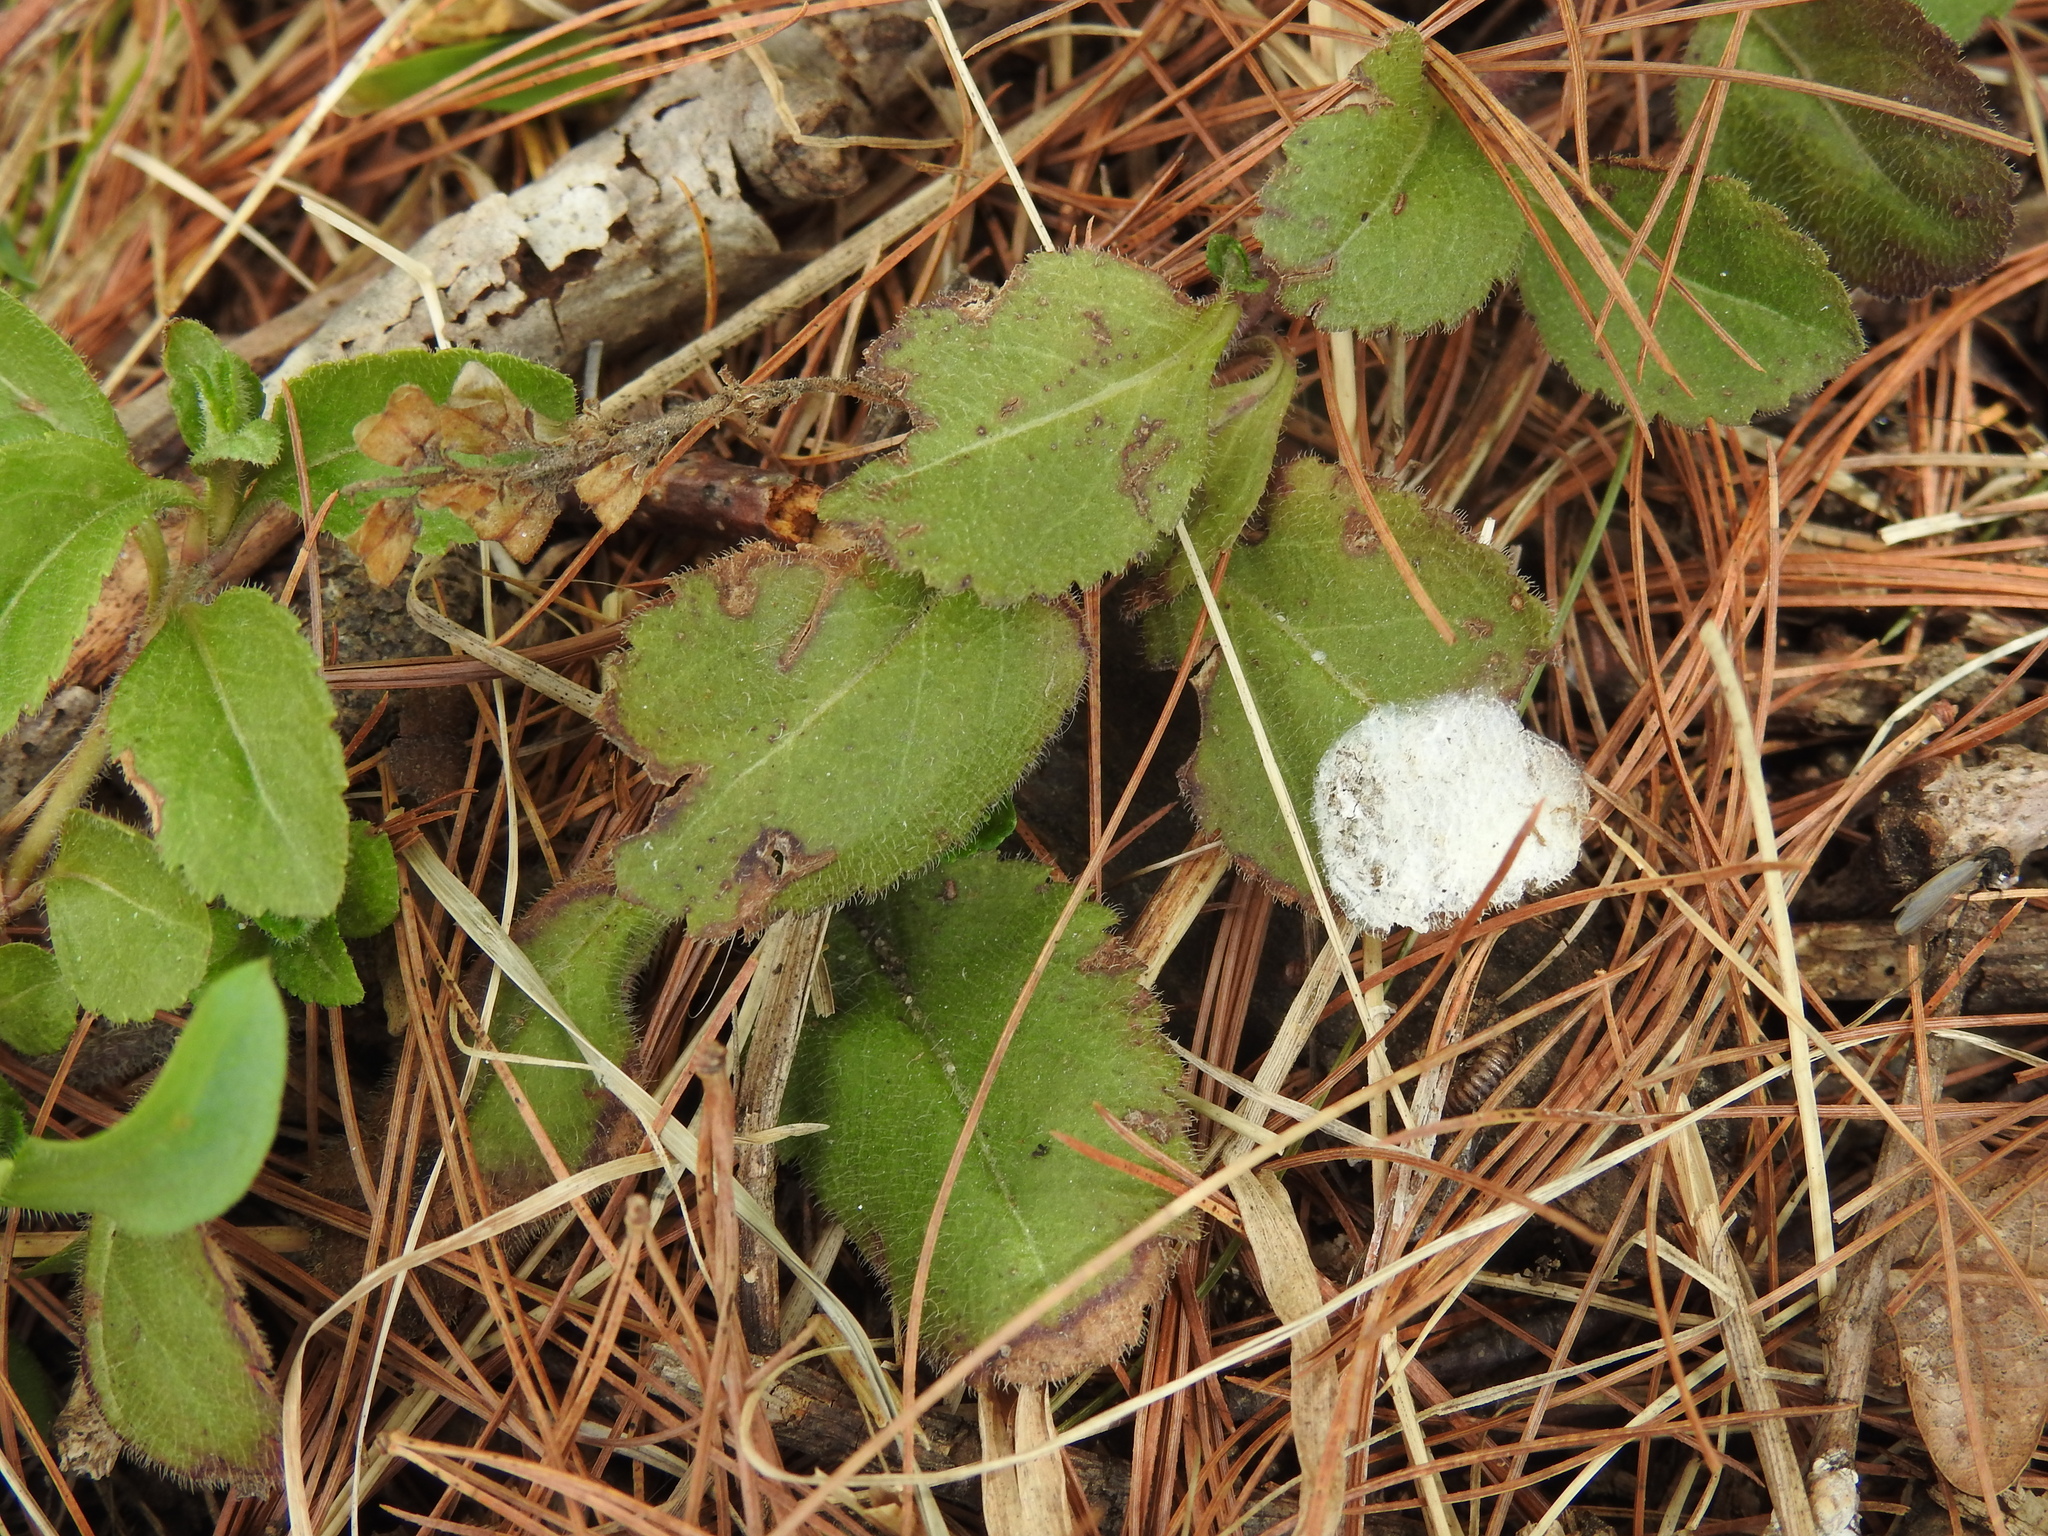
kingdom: Plantae
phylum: Tracheophyta
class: Magnoliopsida
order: Lamiales
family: Plantaginaceae
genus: Veronica
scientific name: Veronica officinalis
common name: Common speedwell
